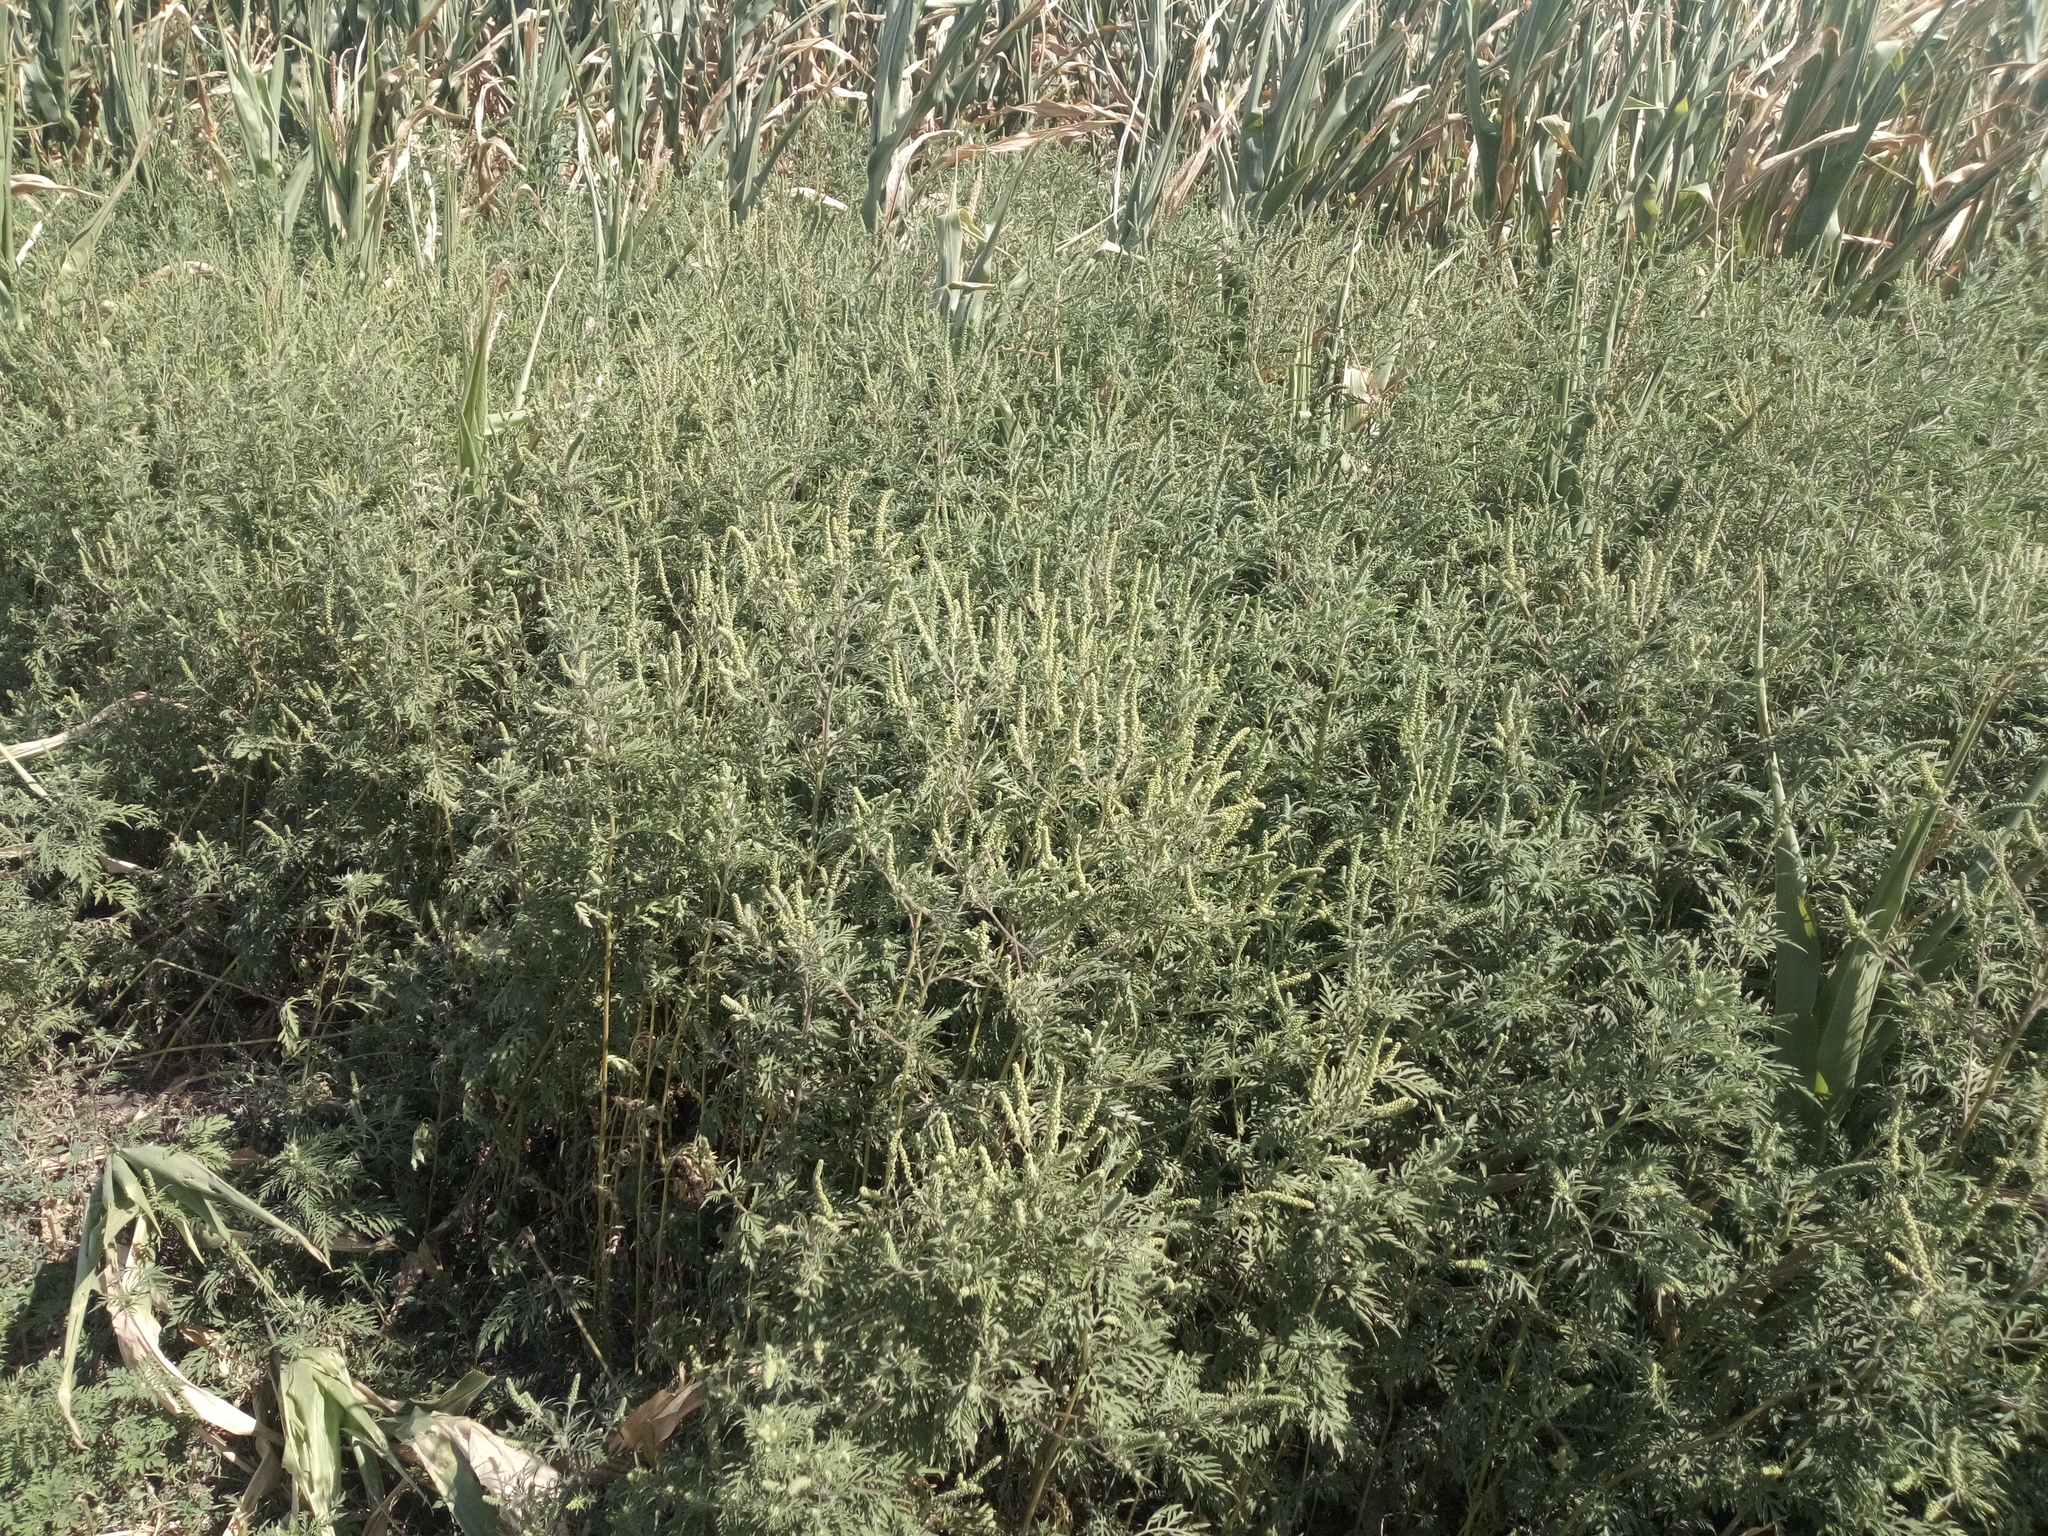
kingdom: Plantae
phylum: Tracheophyta
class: Magnoliopsida
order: Asterales
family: Asteraceae
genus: Ambrosia
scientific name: Ambrosia artemisiifolia
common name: Annual ragweed
